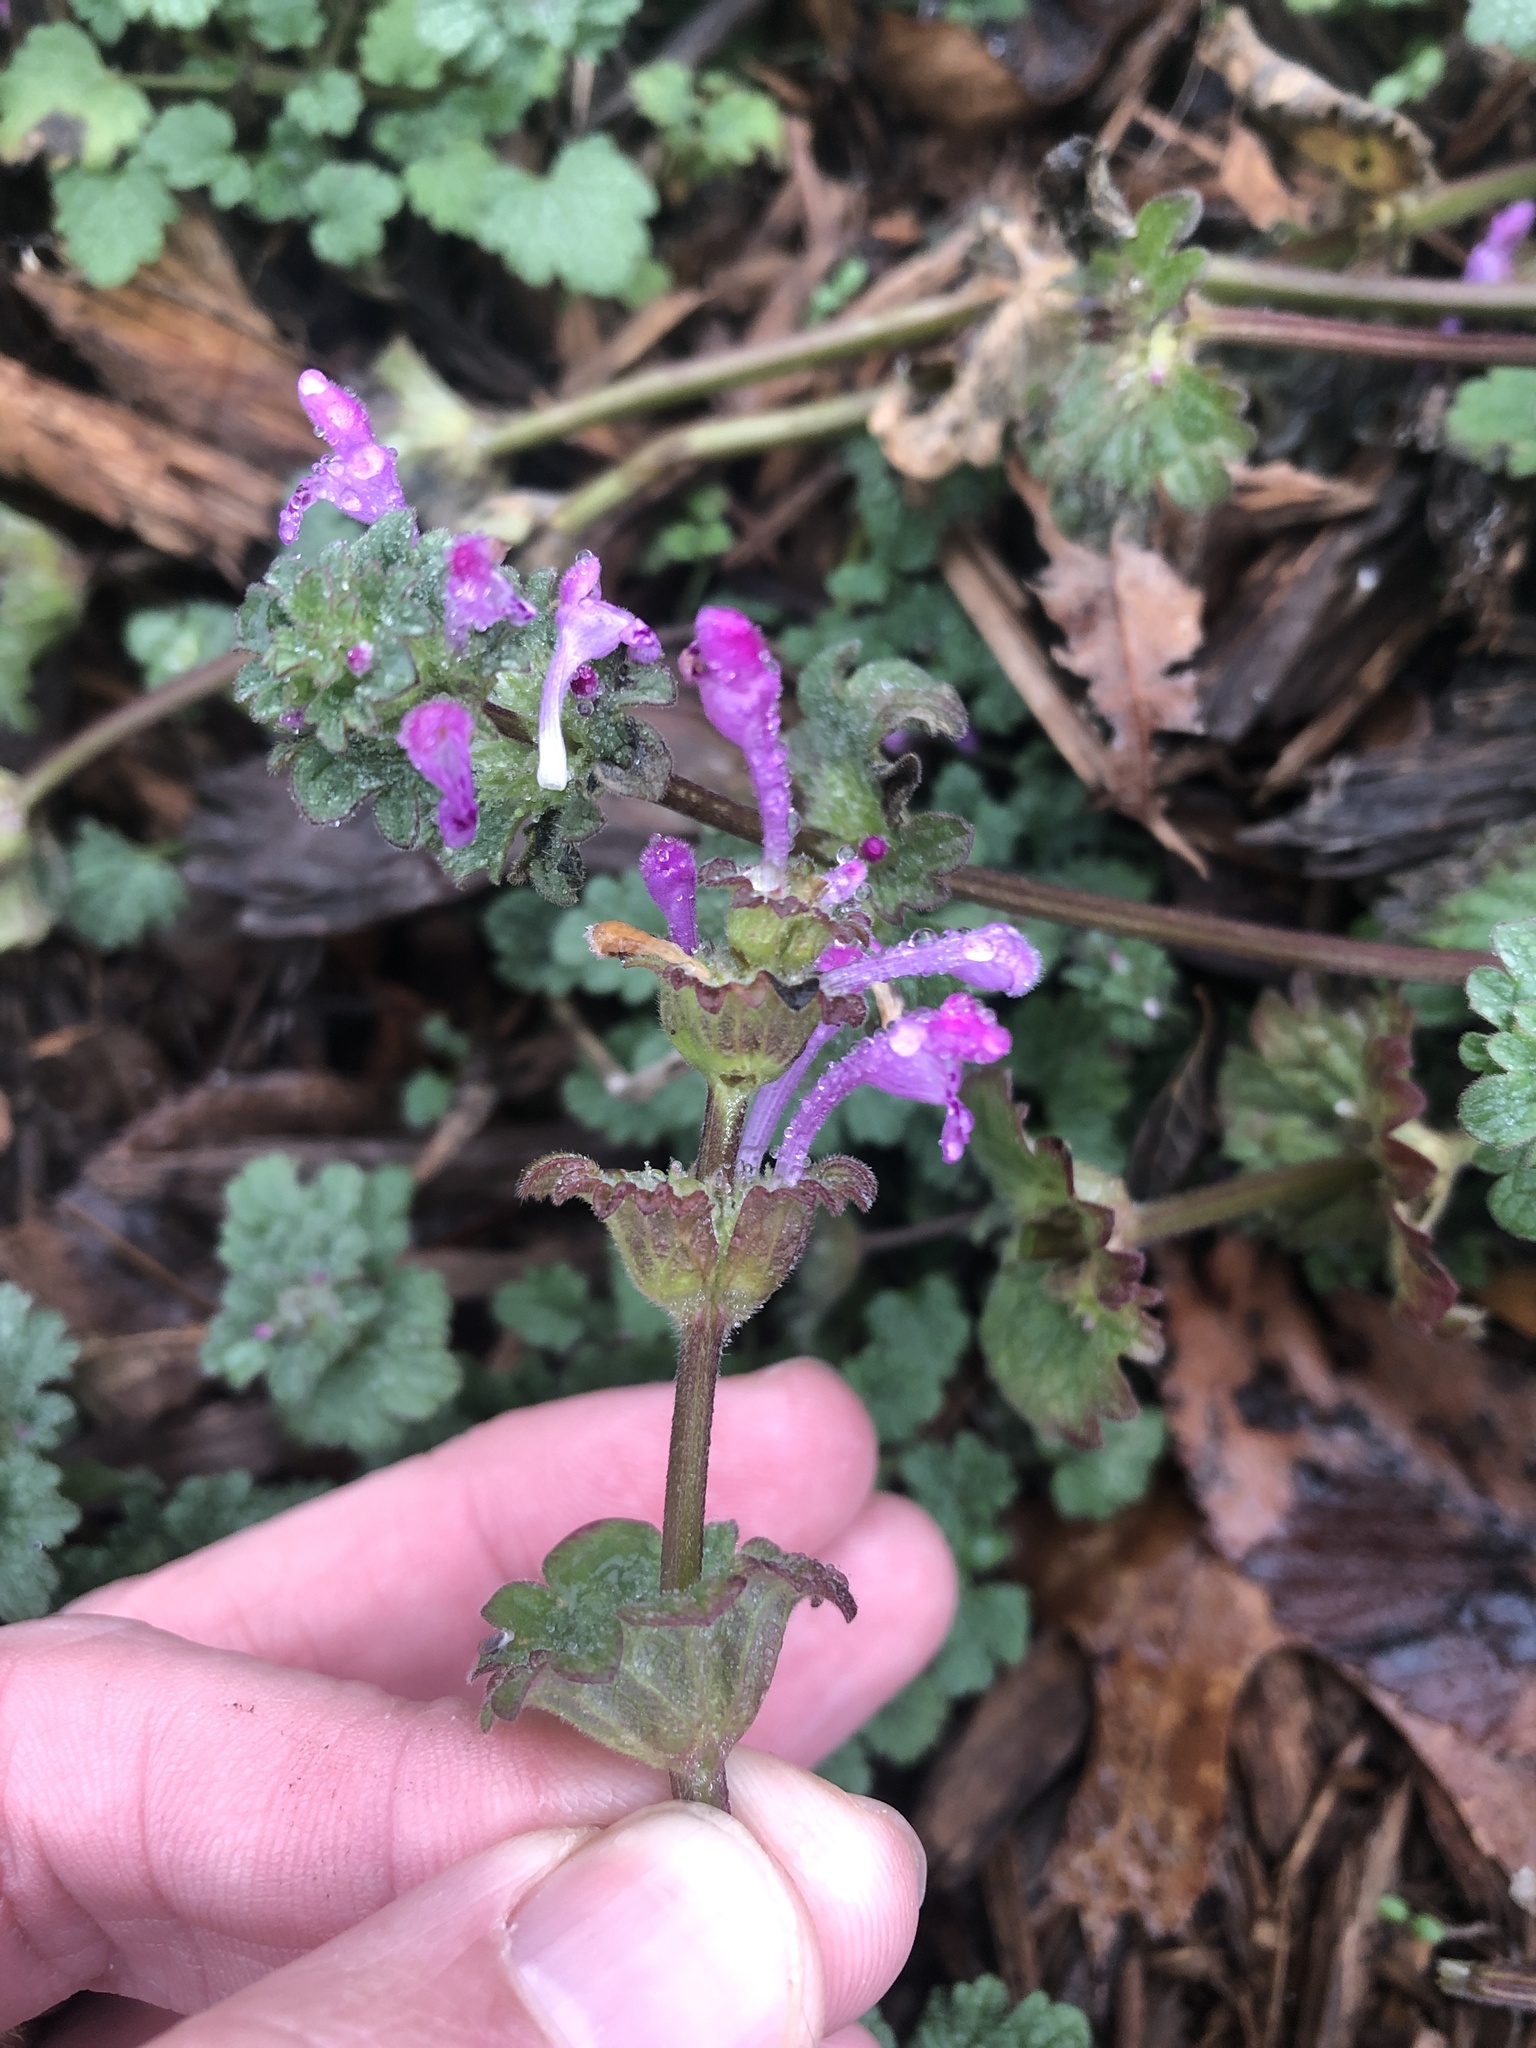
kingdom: Plantae
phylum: Tracheophyta
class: Magnoliopsida
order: Lamiales
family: Lamiaceae
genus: Lamium
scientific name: Lamium amplexicaule
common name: Henbit dead-nettle
